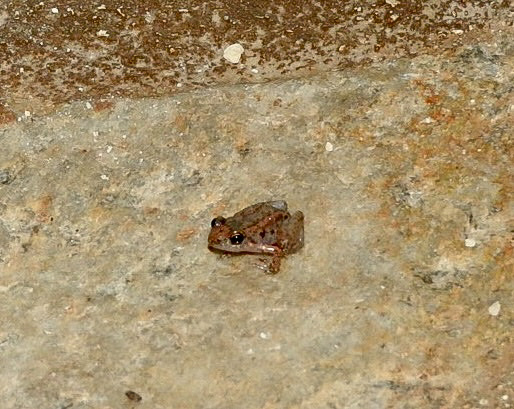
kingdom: Animalia
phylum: Chordata
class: Amphibia
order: Anura
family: Eleutherodactylidae
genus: Eleutherodactylus
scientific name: Eleutherodactylus planirostris
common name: Greenhouse frog
